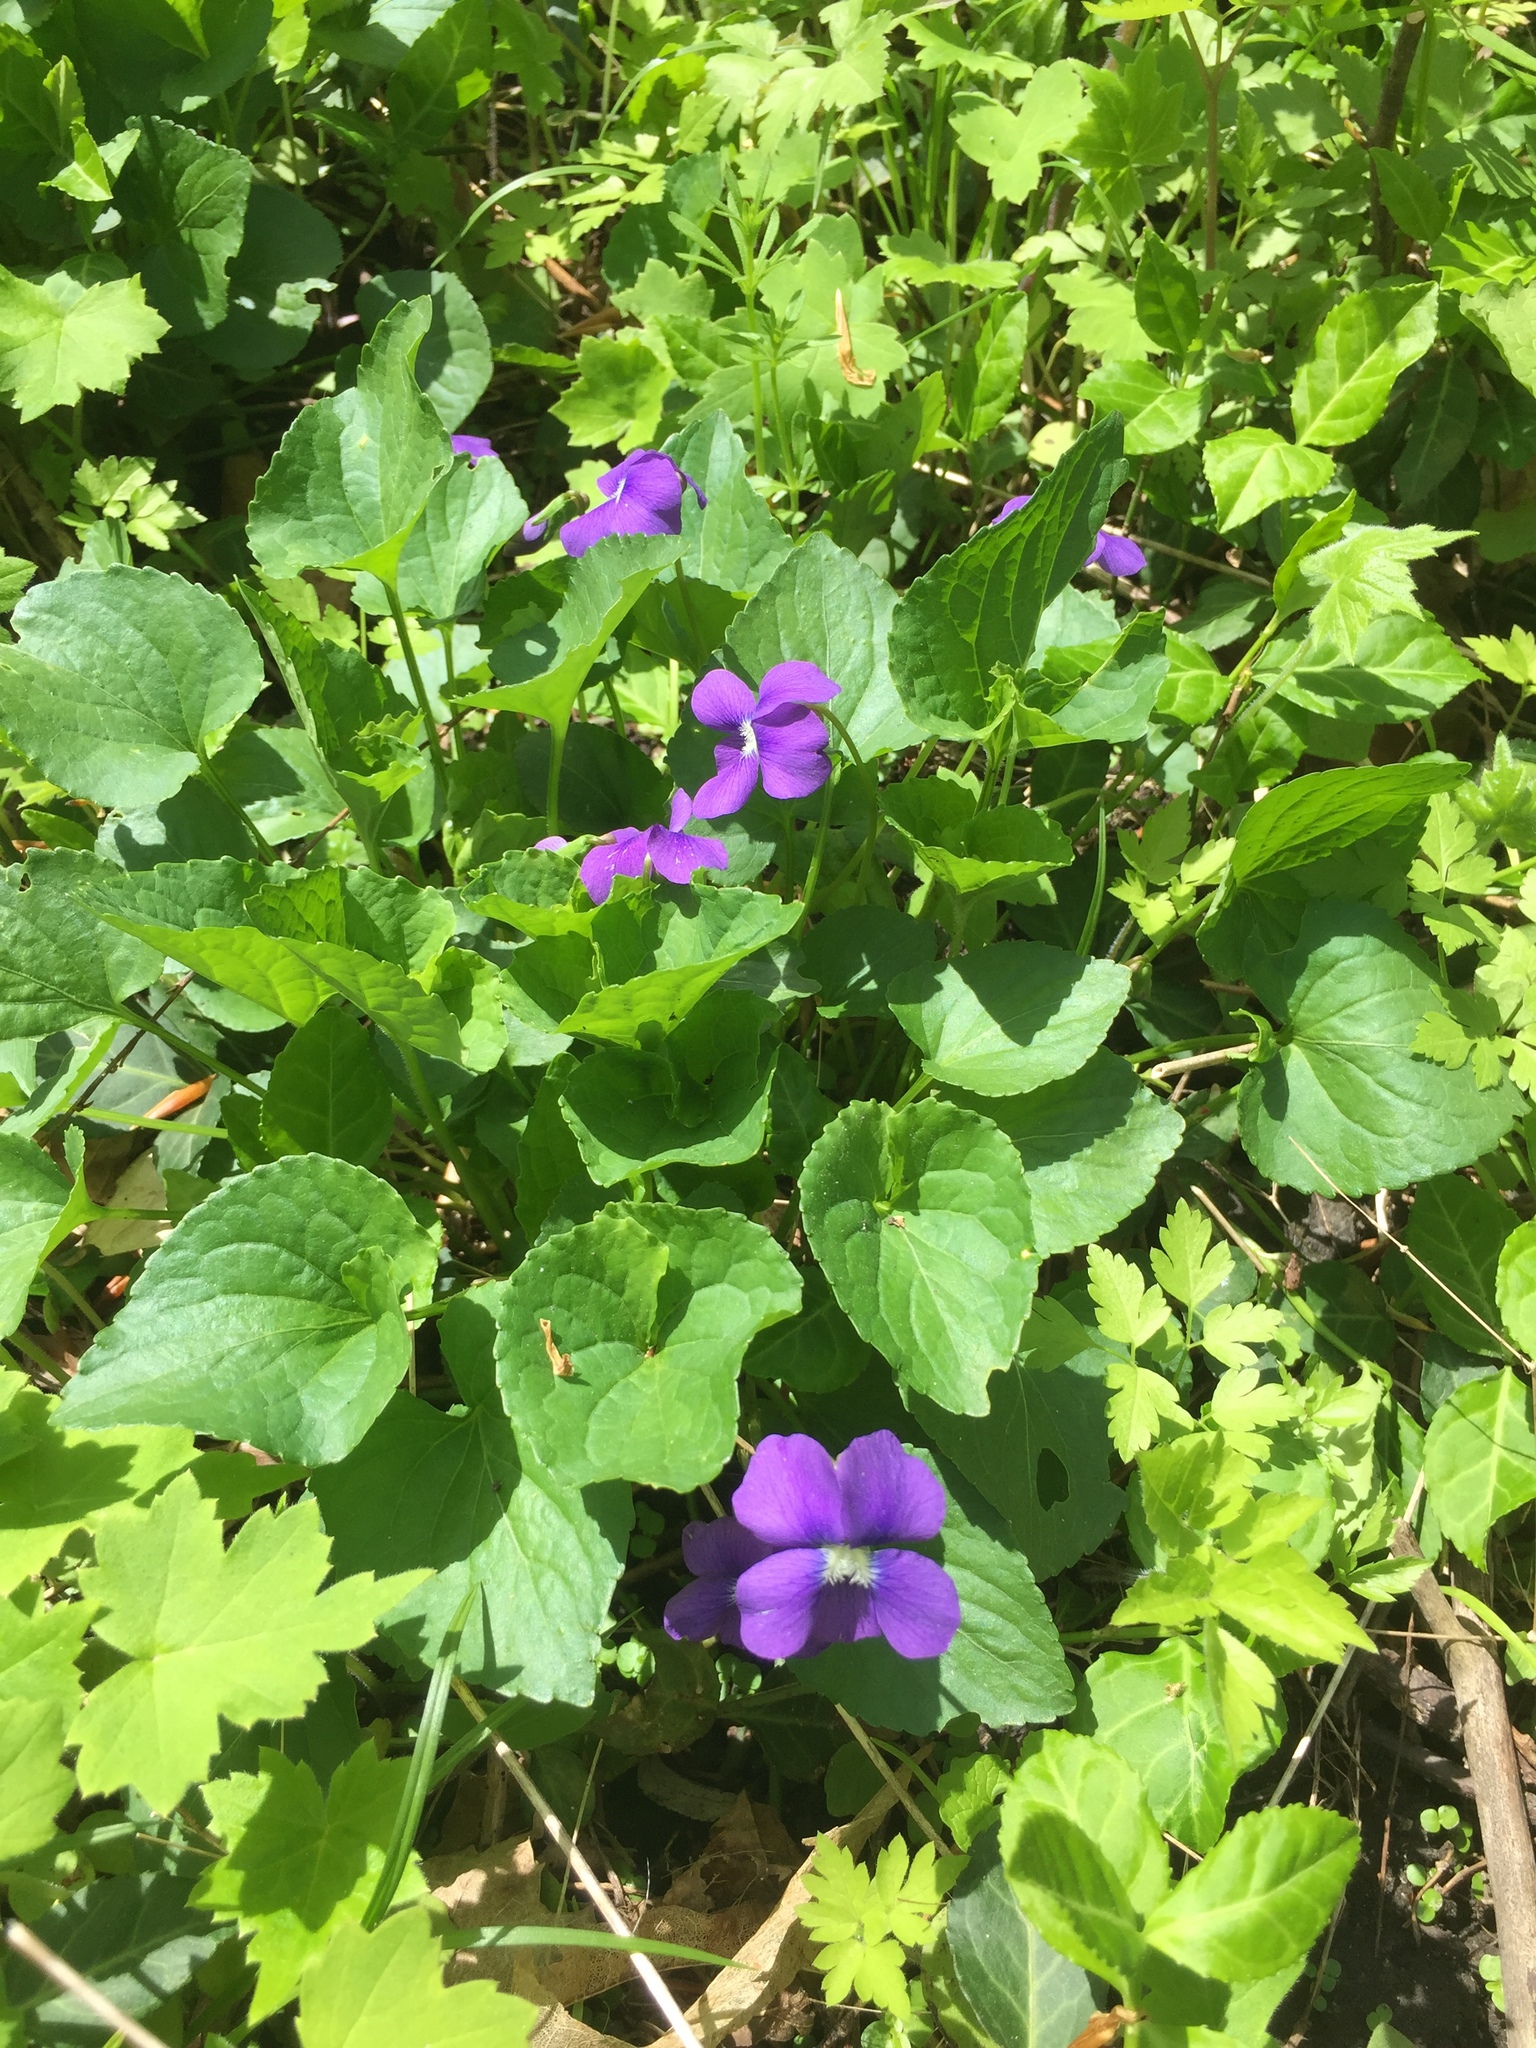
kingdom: Plantae
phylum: Tracheophyta
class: Magnoliopsida
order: Malpighiales
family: Violaceae
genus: Viola
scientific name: Viola sororia
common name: Dooryard violet
